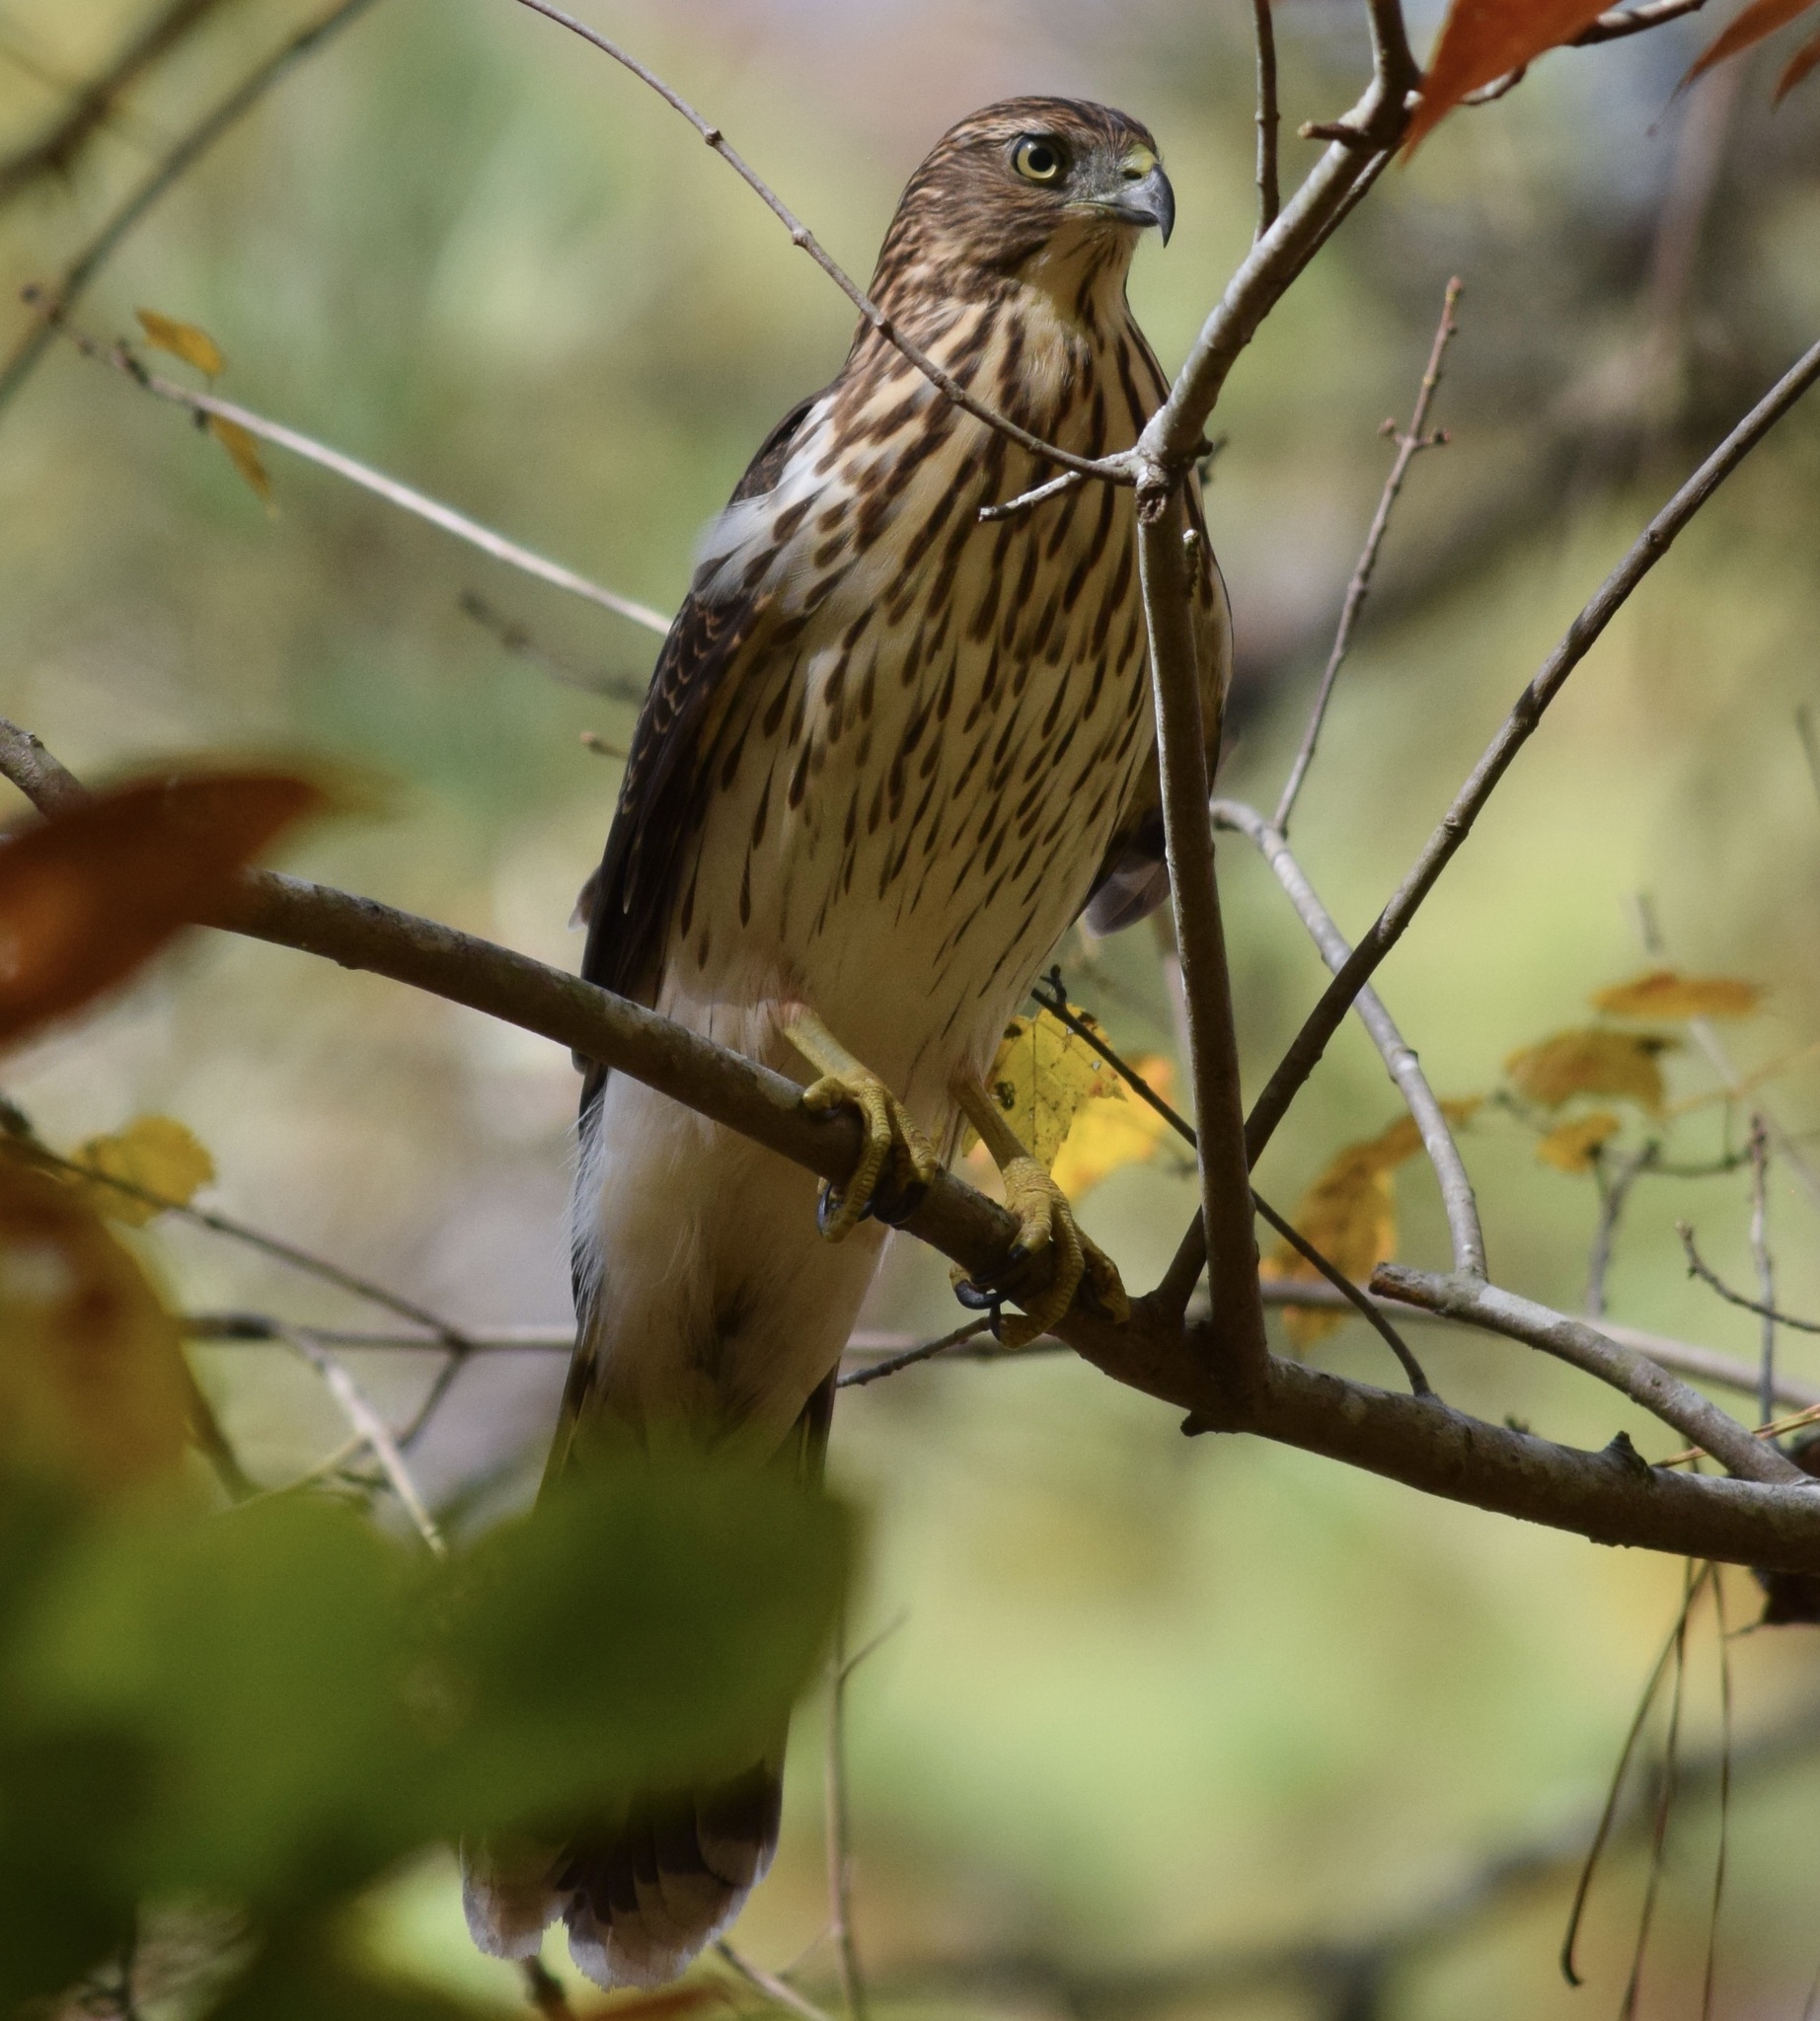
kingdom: Animalia
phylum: Chordata
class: Aves
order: Accipitriformes
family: Accipitridae
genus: Accipiter
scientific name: Accipiter cooperii
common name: Cooper's hawk
